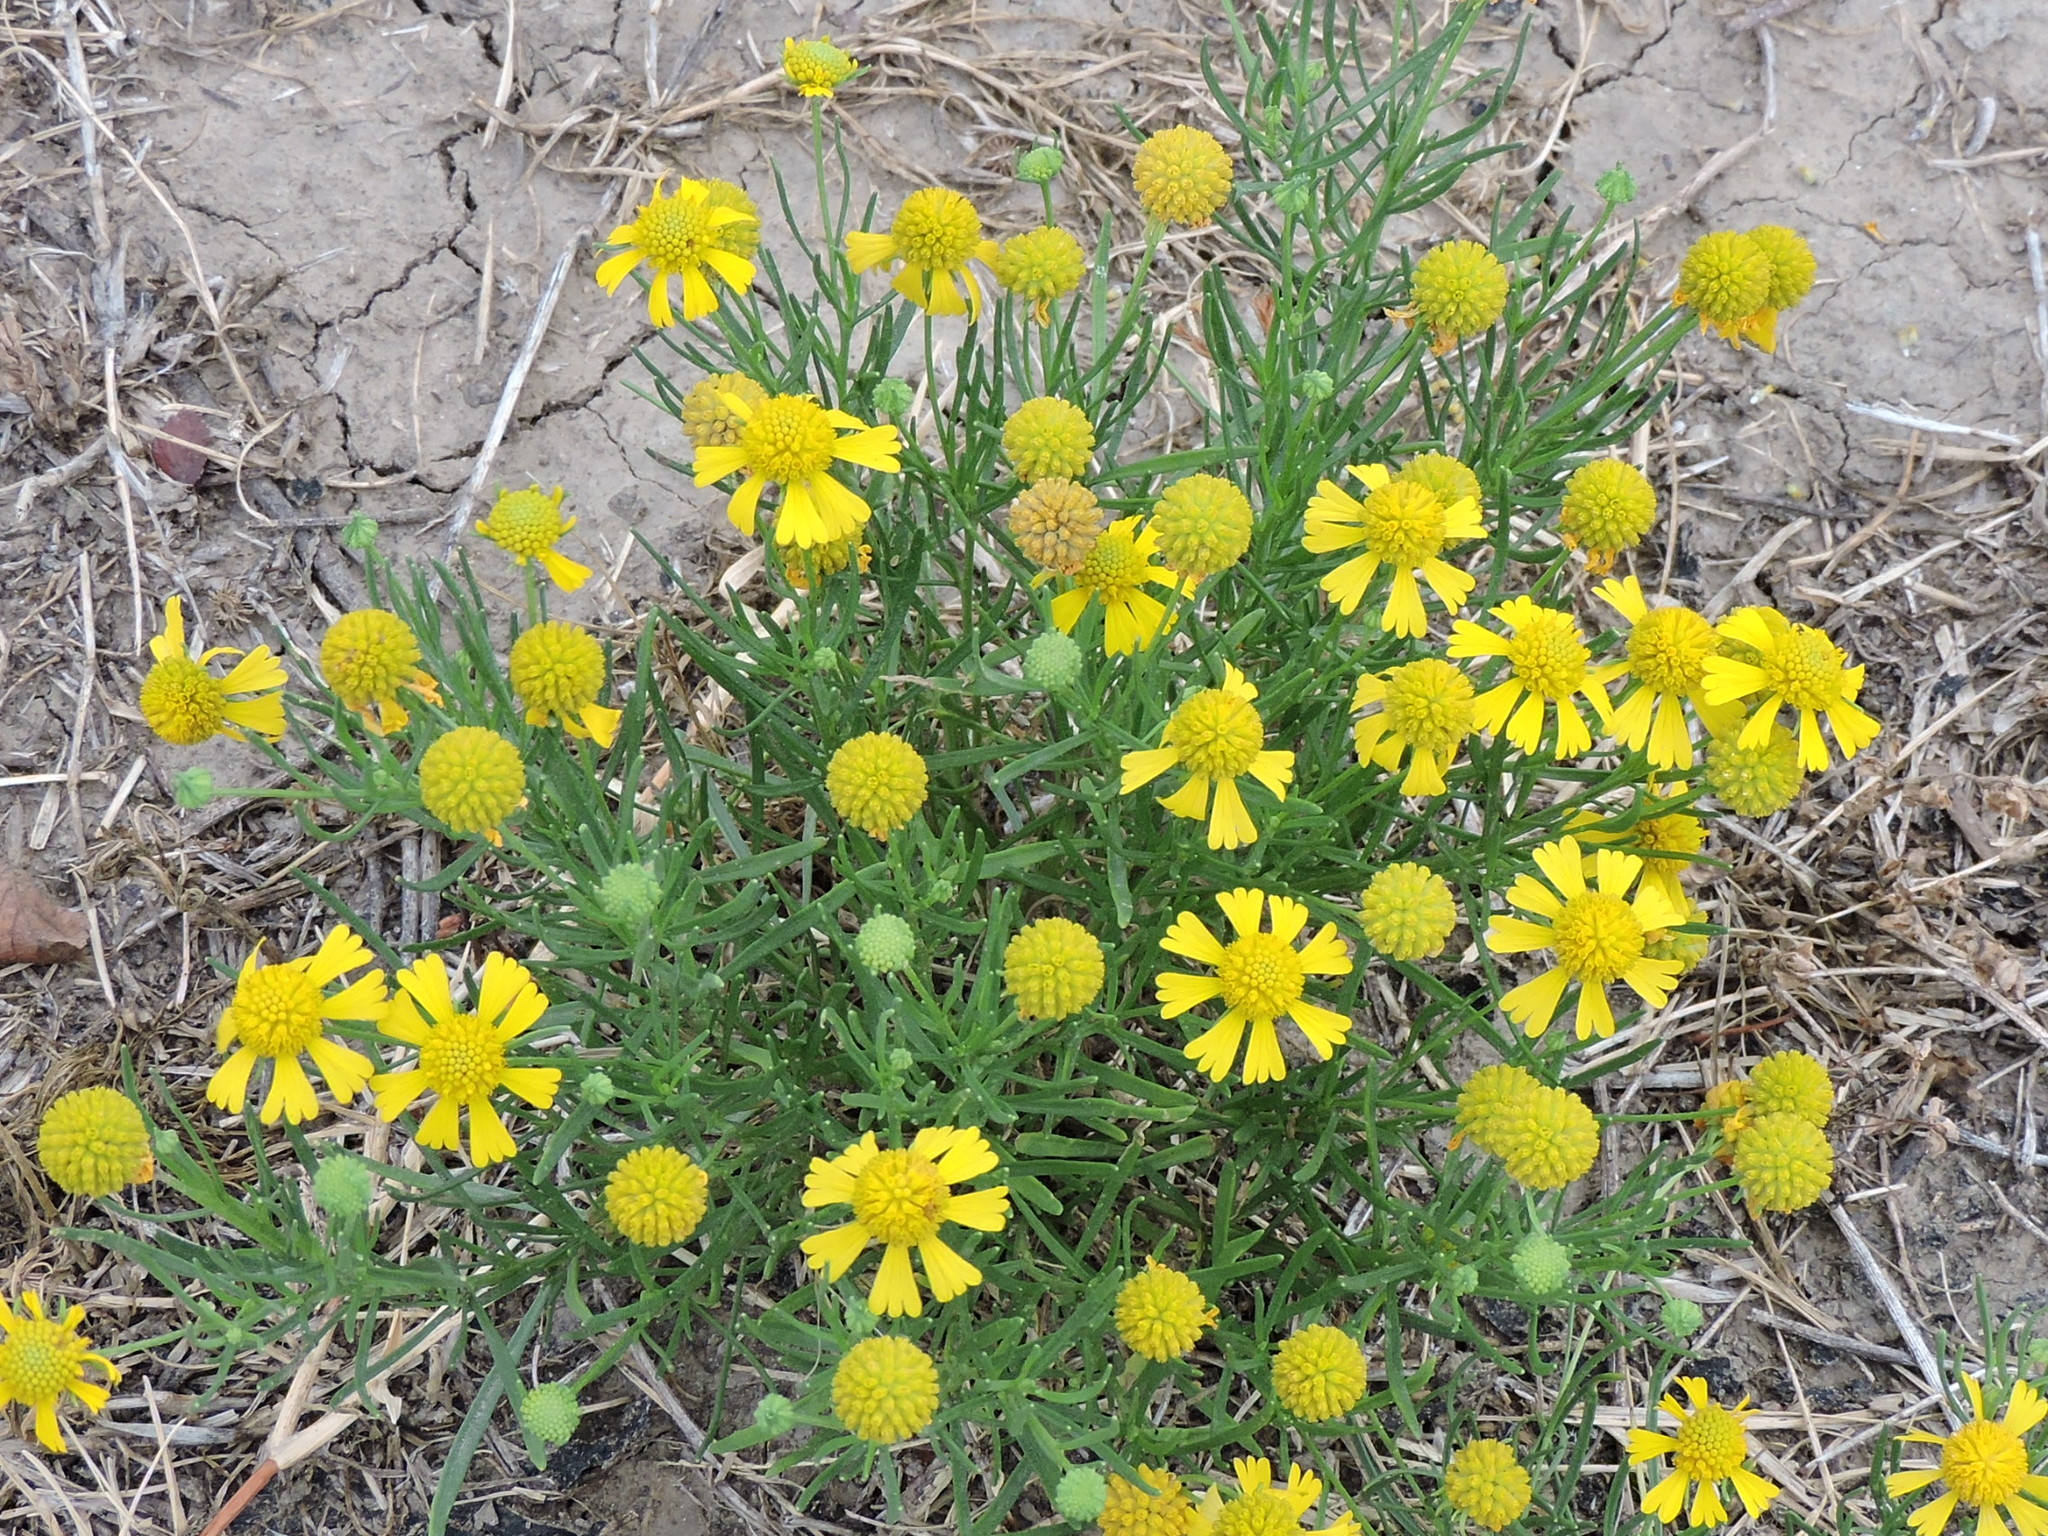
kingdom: Plantae
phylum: Tracheophyta
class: Magnoliopsida
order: Asterales
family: Asteraceae
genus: Helenium
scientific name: Helenium amarum
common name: Bitter sneezeweed
